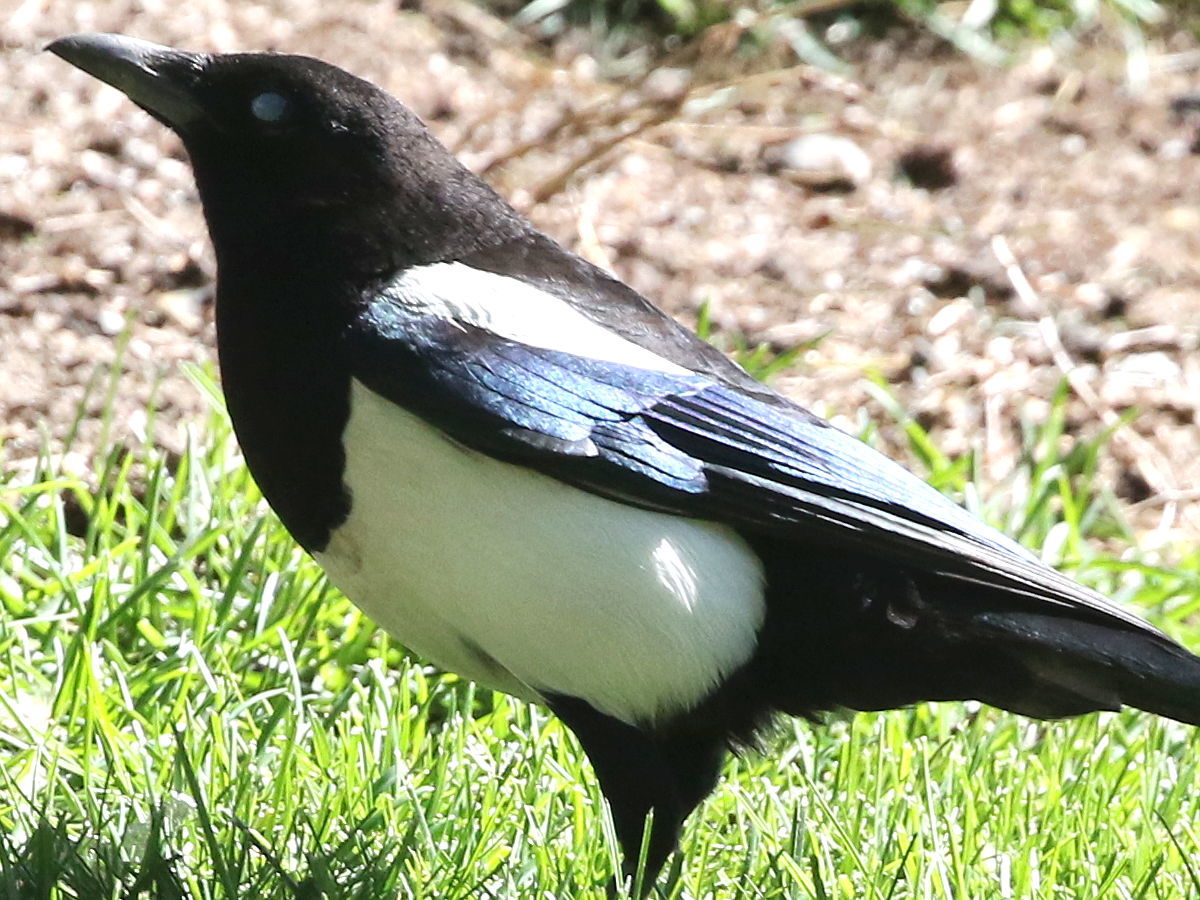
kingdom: Animalia
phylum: Chordata
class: Aves
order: Passeriformes
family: Corvidae
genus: Pica
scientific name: Pica pica
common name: Eurasian magpie
